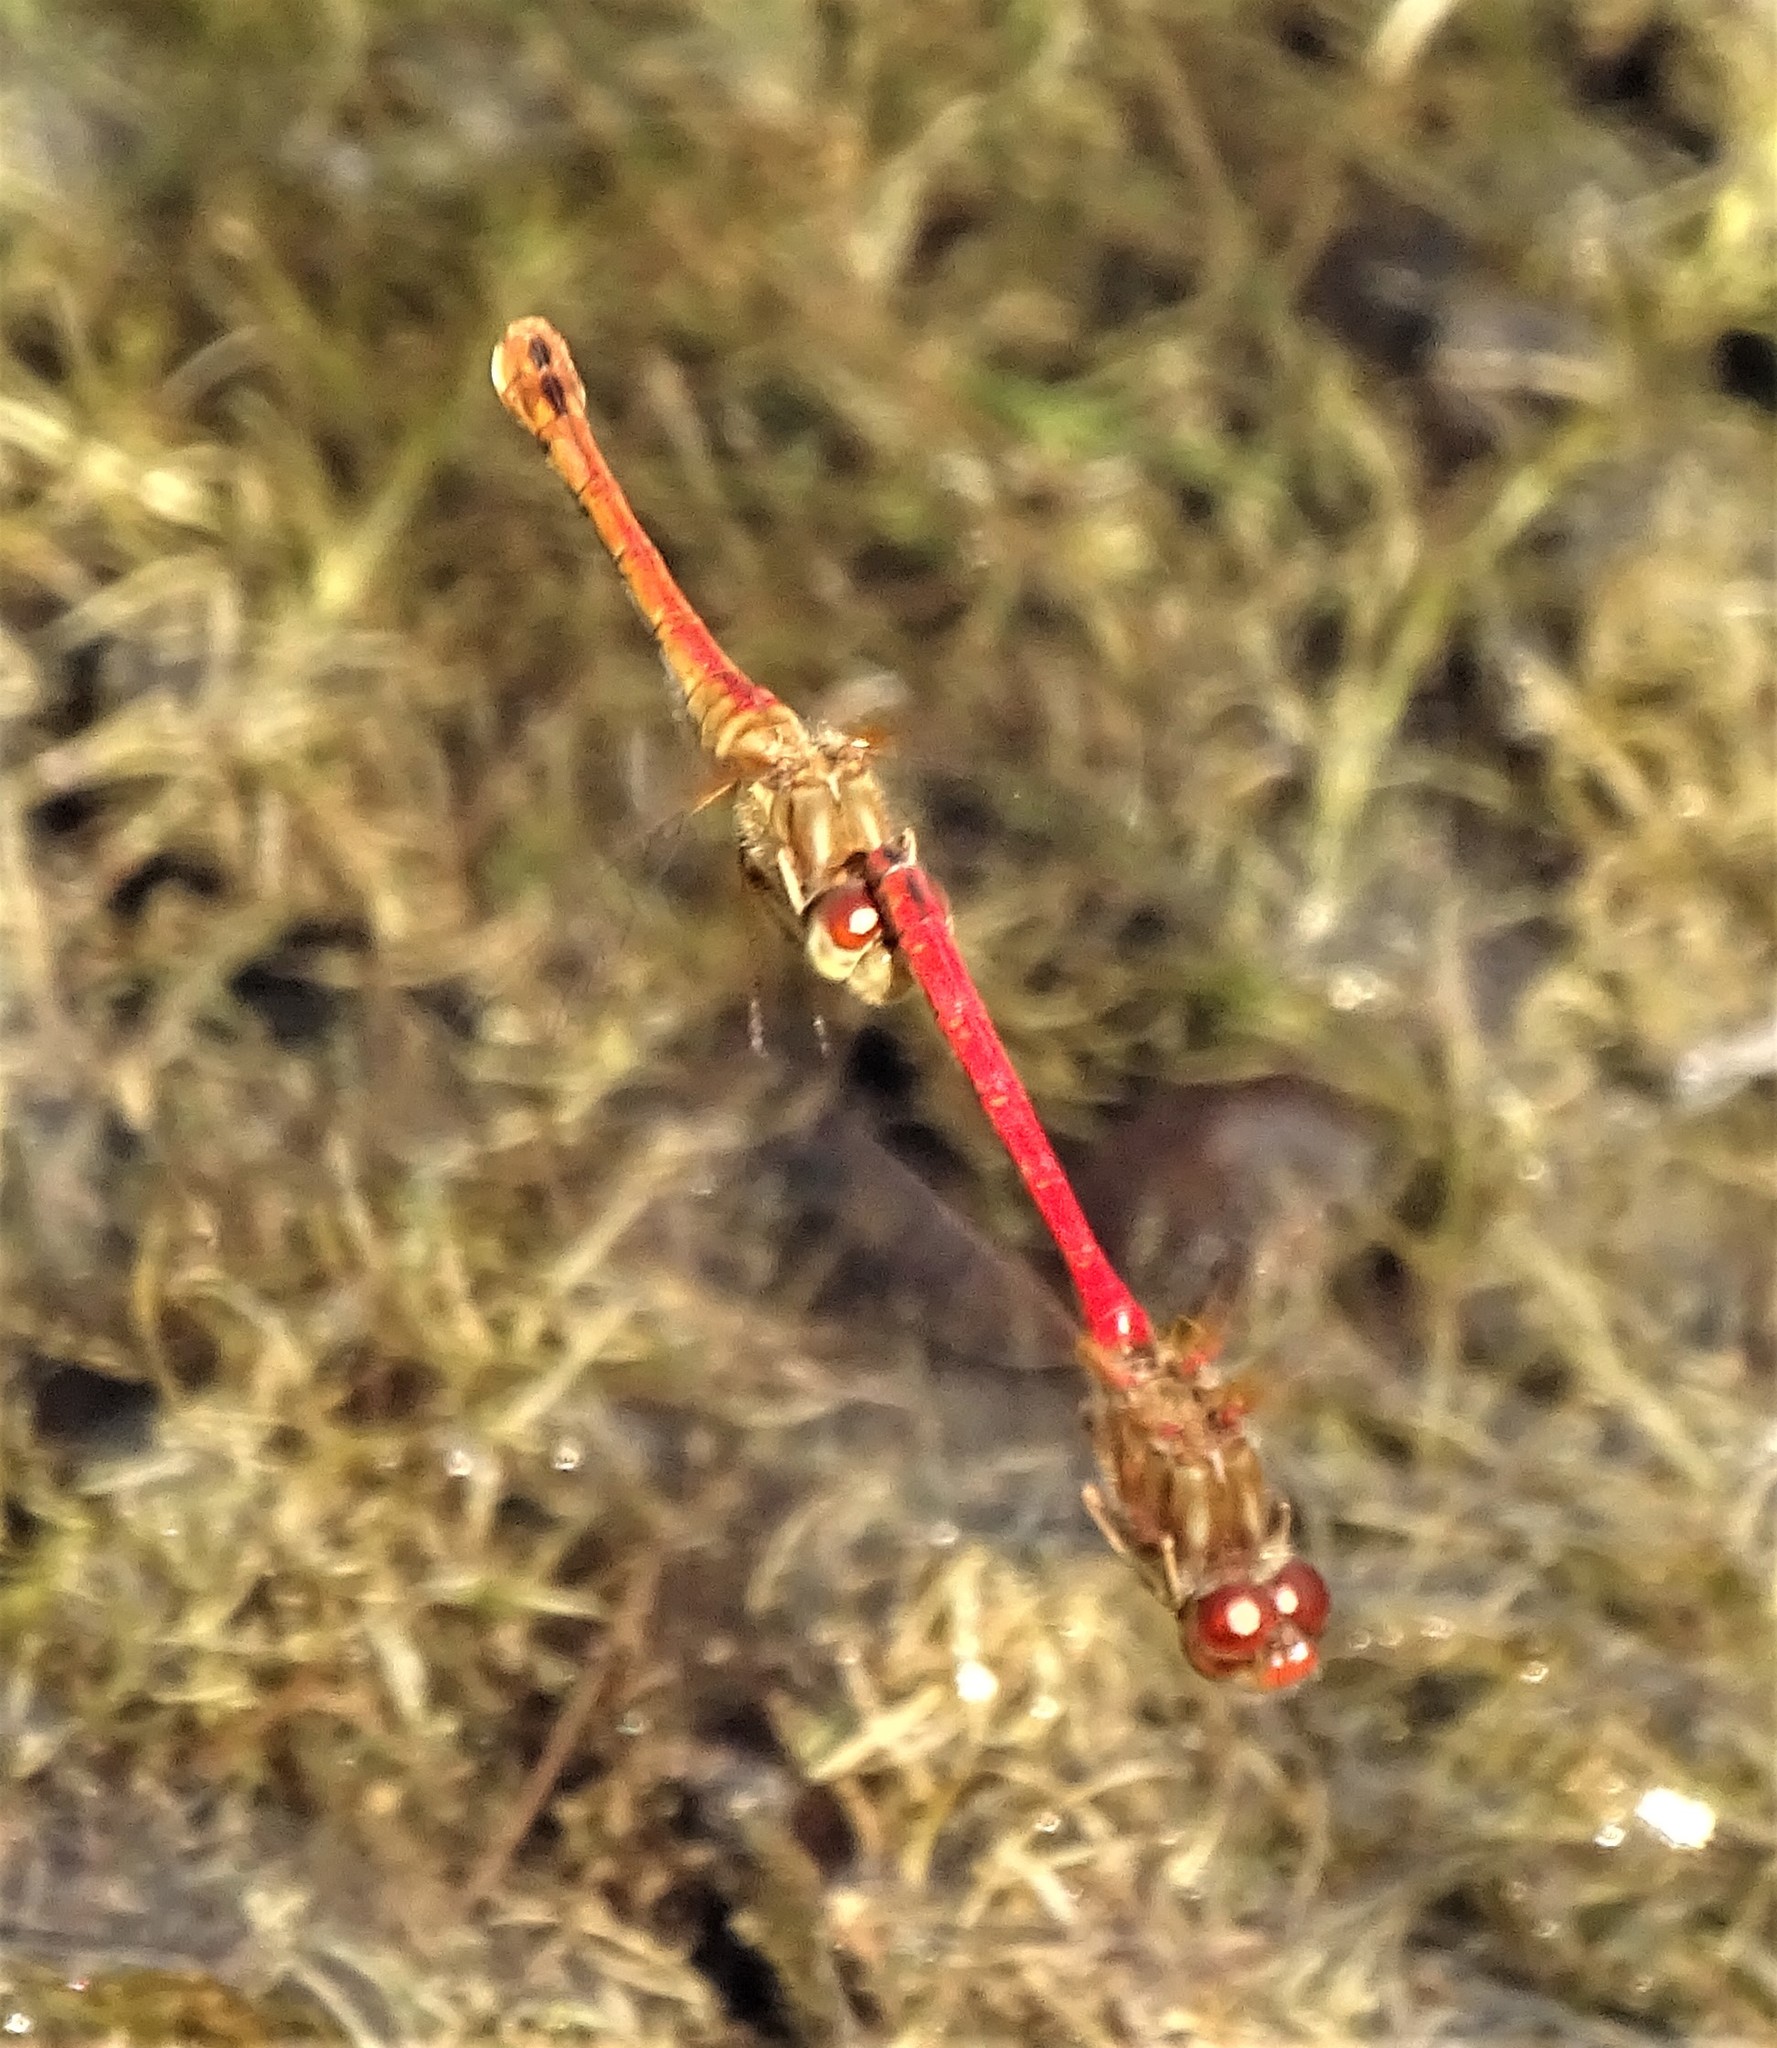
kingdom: Animalia
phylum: Arthropoda
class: Insecta
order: Odonata
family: Libellulidae
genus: Sympetrum
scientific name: Sympetrum vicinum
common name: Autumn meadowhawk
